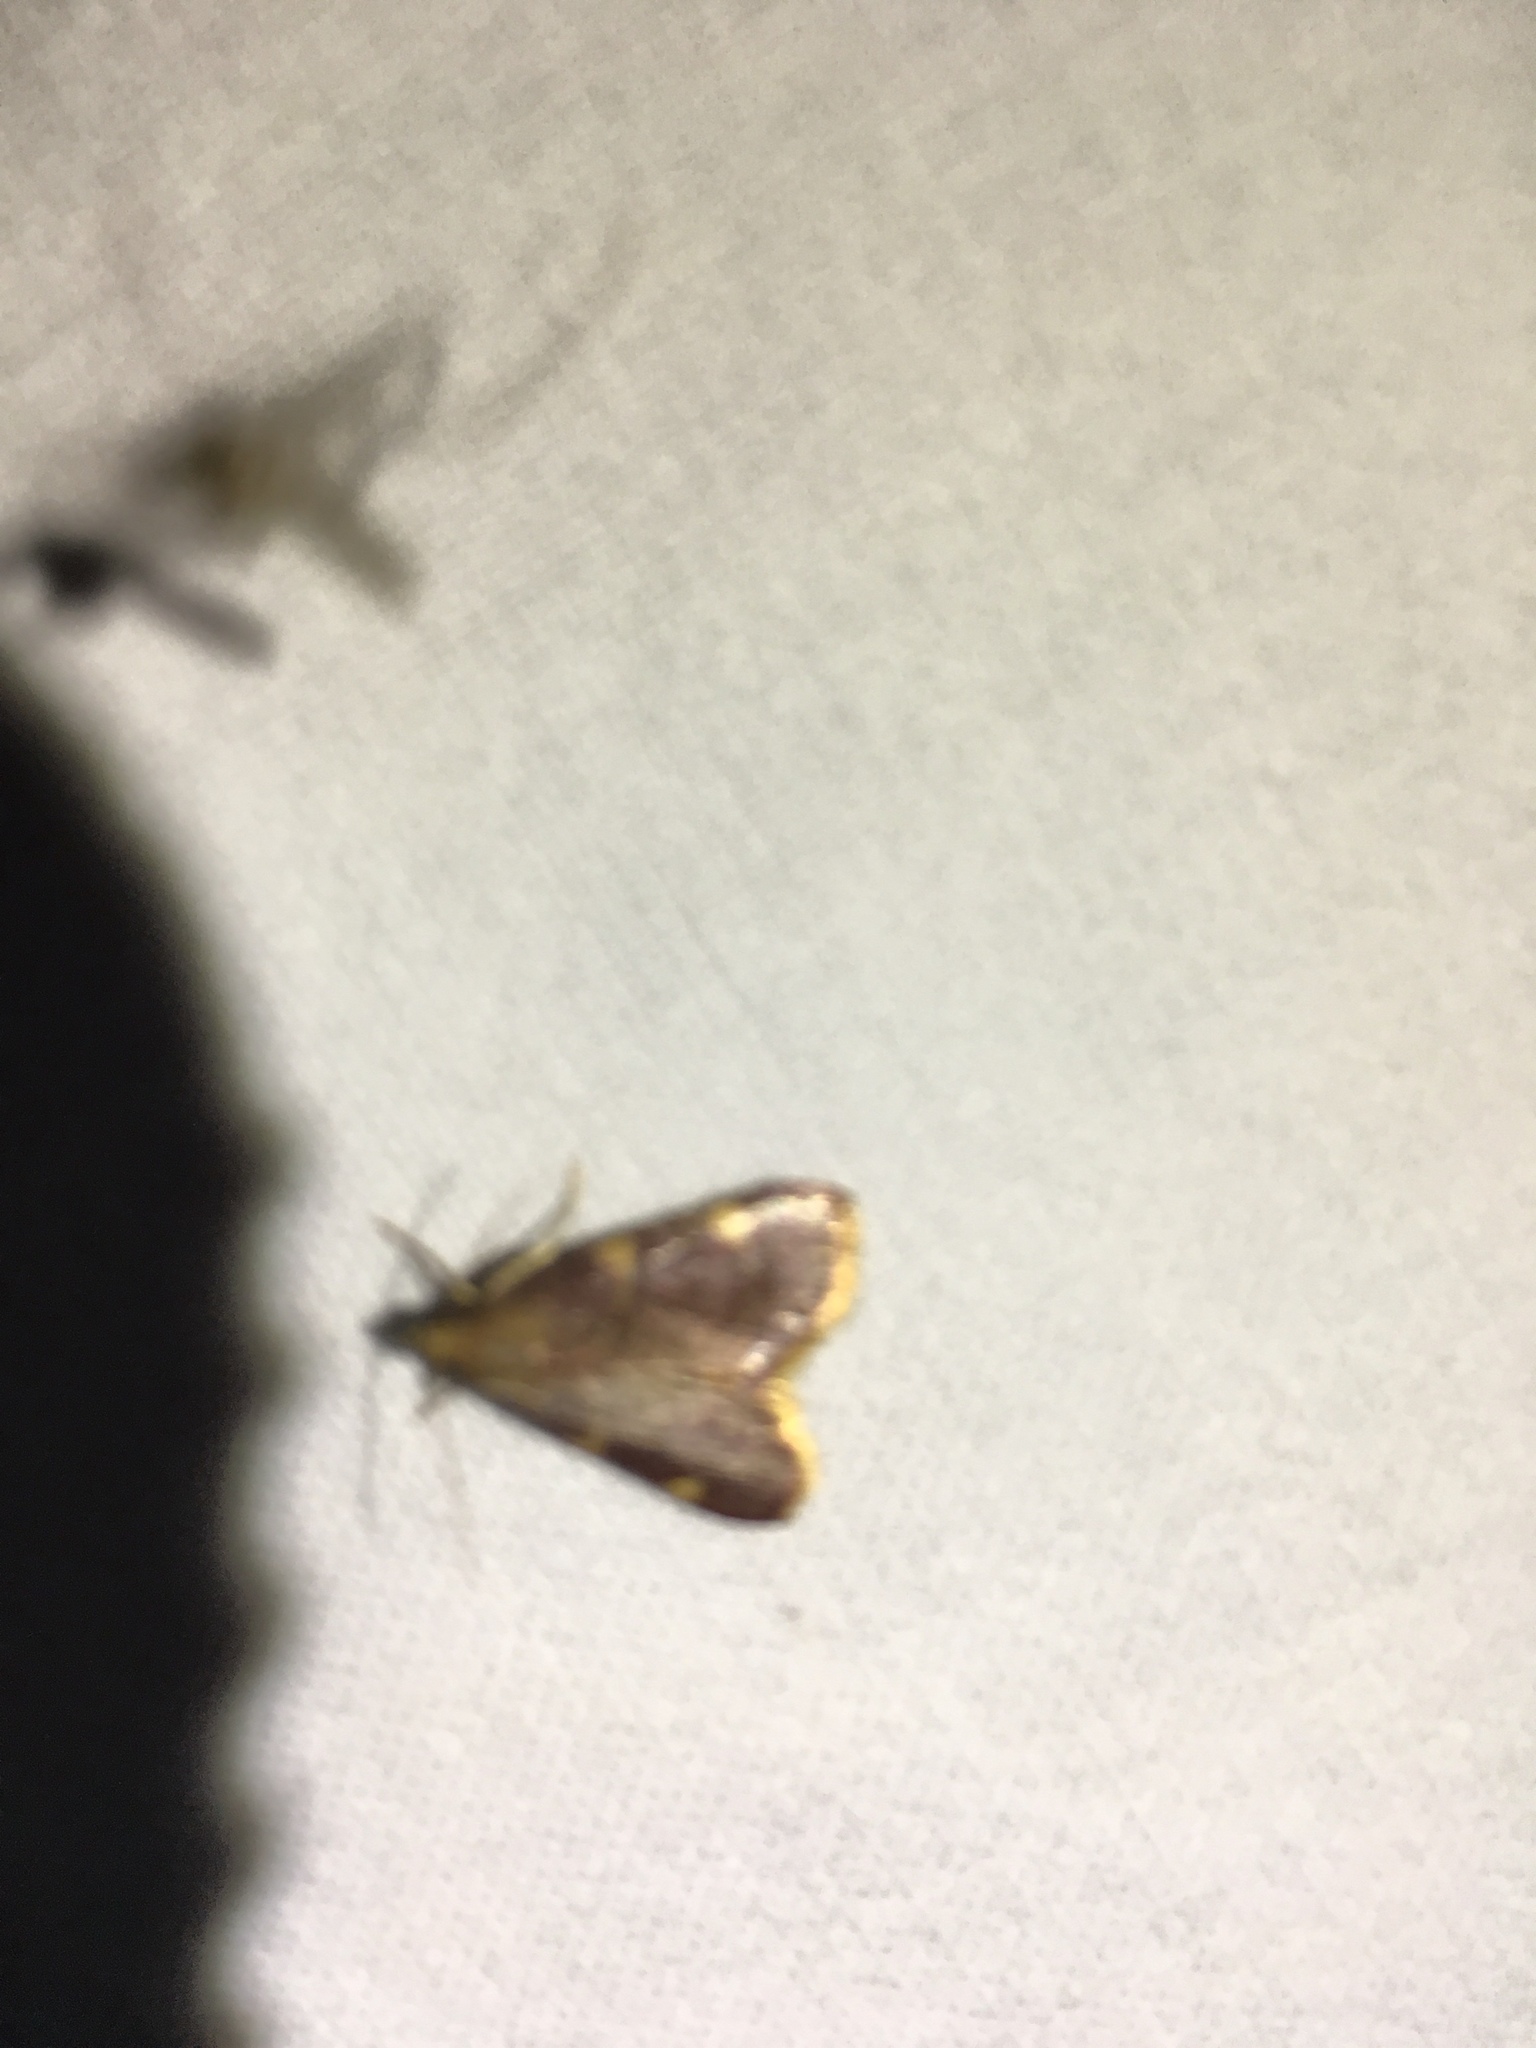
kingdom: Animalia
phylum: Arthropoda
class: Insecta
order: Lepidoptera
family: Pyralidae
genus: Hypsopygia
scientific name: Hypsopygia olinalis
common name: Yellow-fringed dolichomia moth
